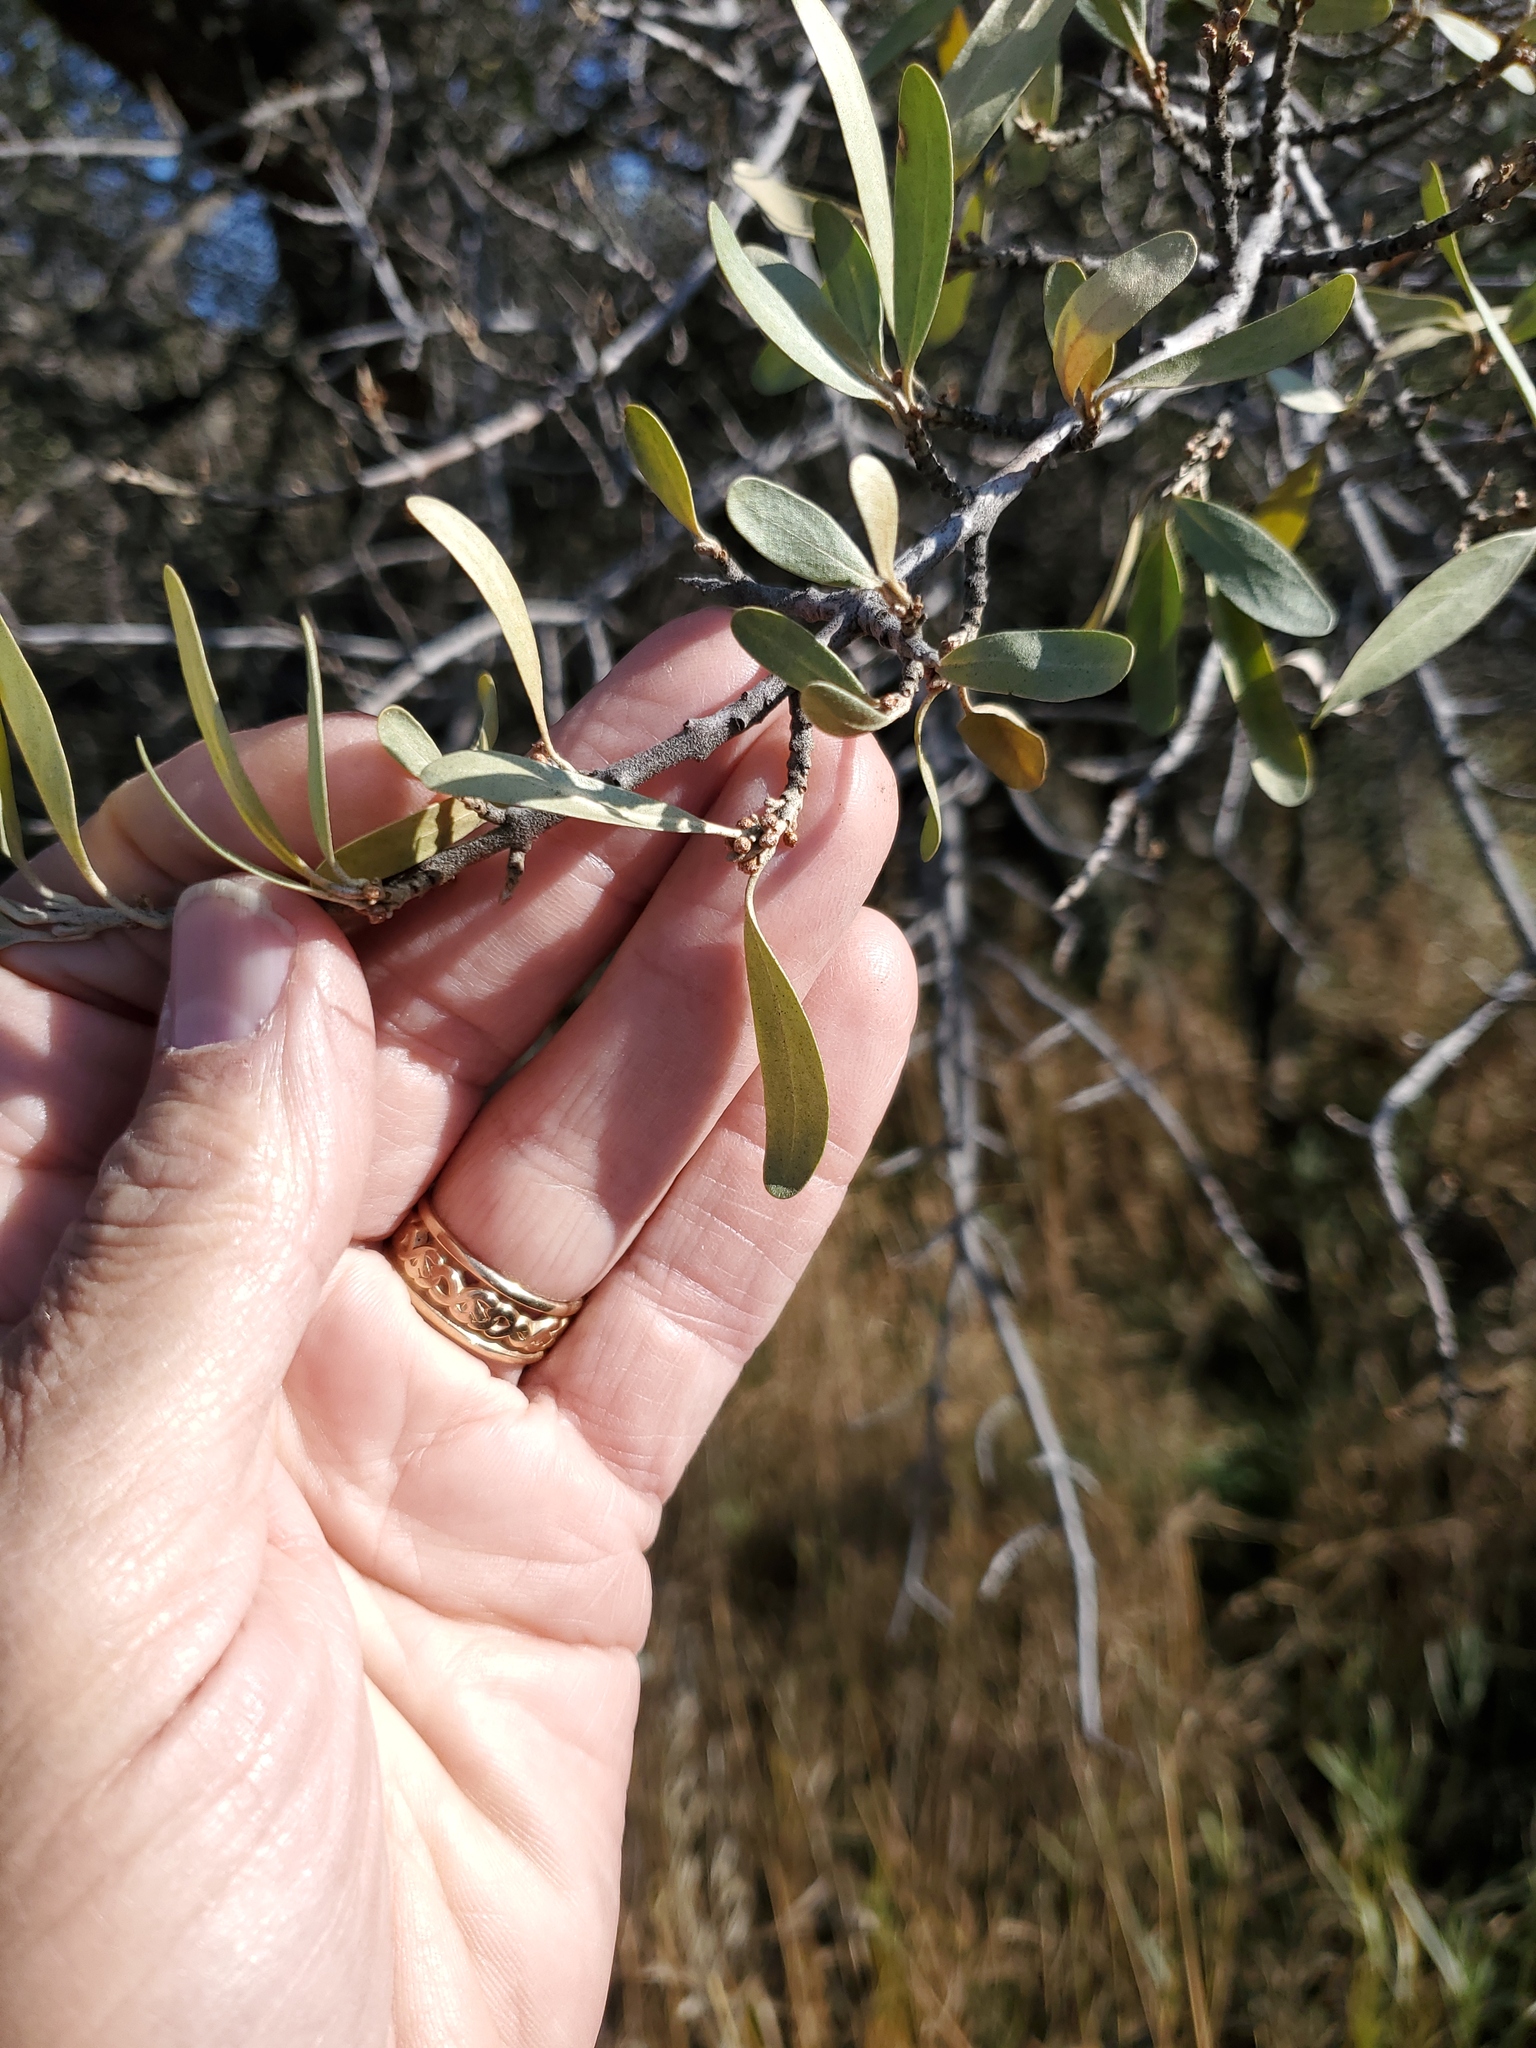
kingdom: Plantae
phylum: Tracheophyta
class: Magnoliopsida
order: Rosales
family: Elaeagnaceae
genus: Shepherdia
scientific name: Shepherdia argentea
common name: Silver buffaloberry
